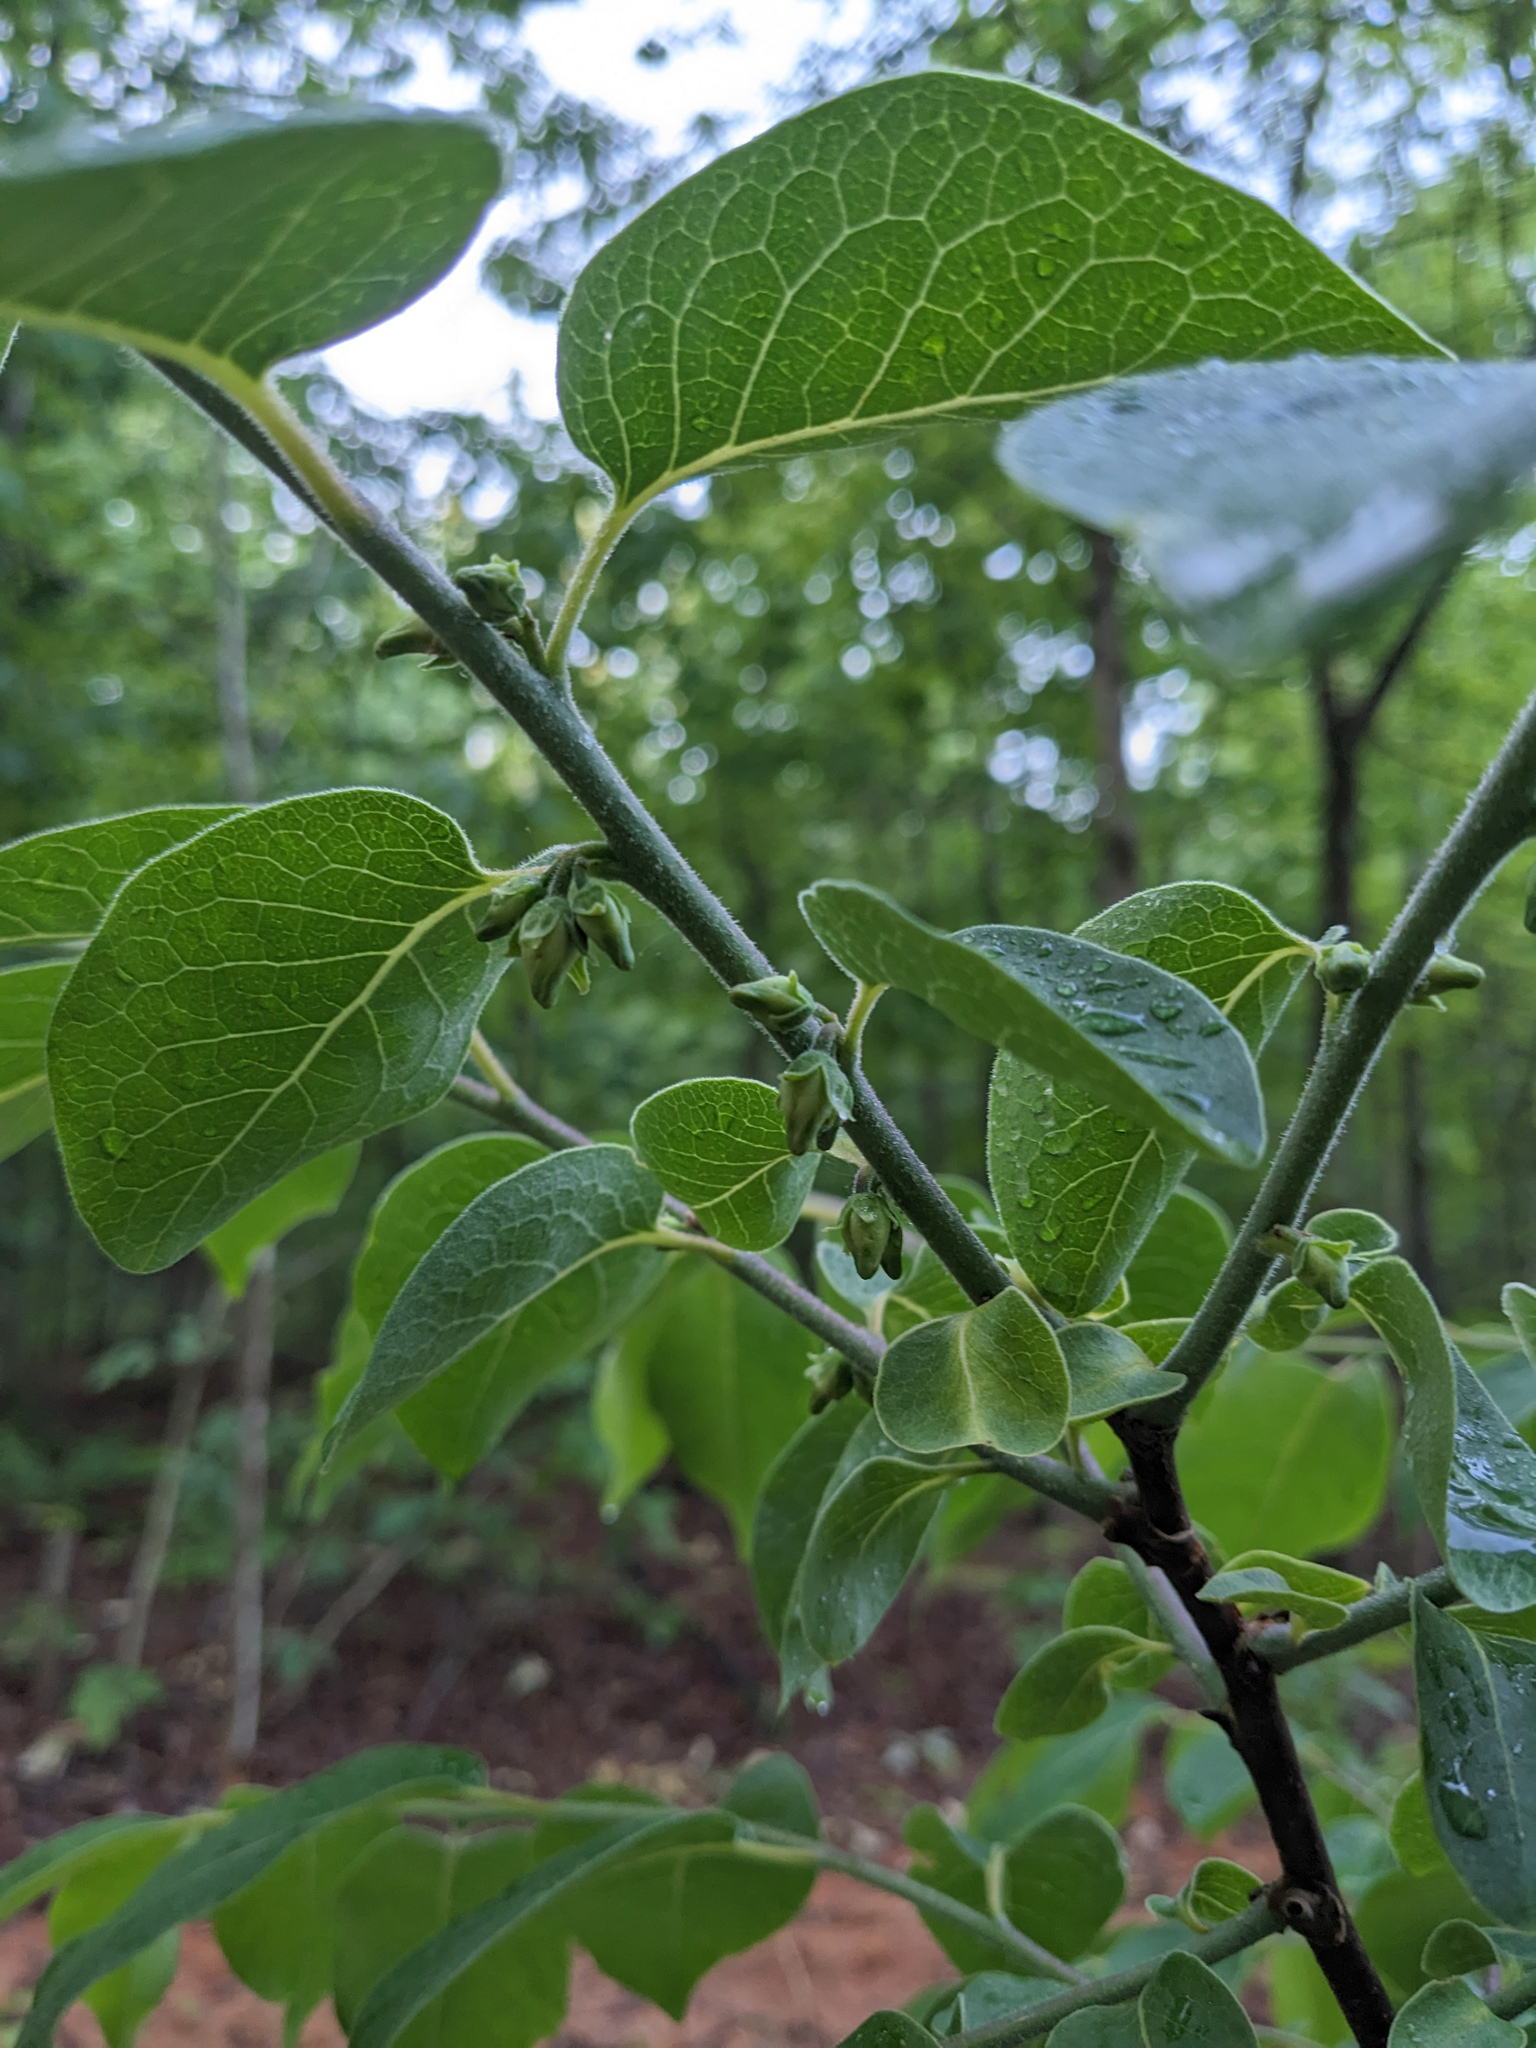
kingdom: Plantae
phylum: Tracheophyta
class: Magnoliopsida
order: Ericales
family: Ebenaceae
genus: Diospyros
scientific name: Diospyros virginiana
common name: Persimmon
